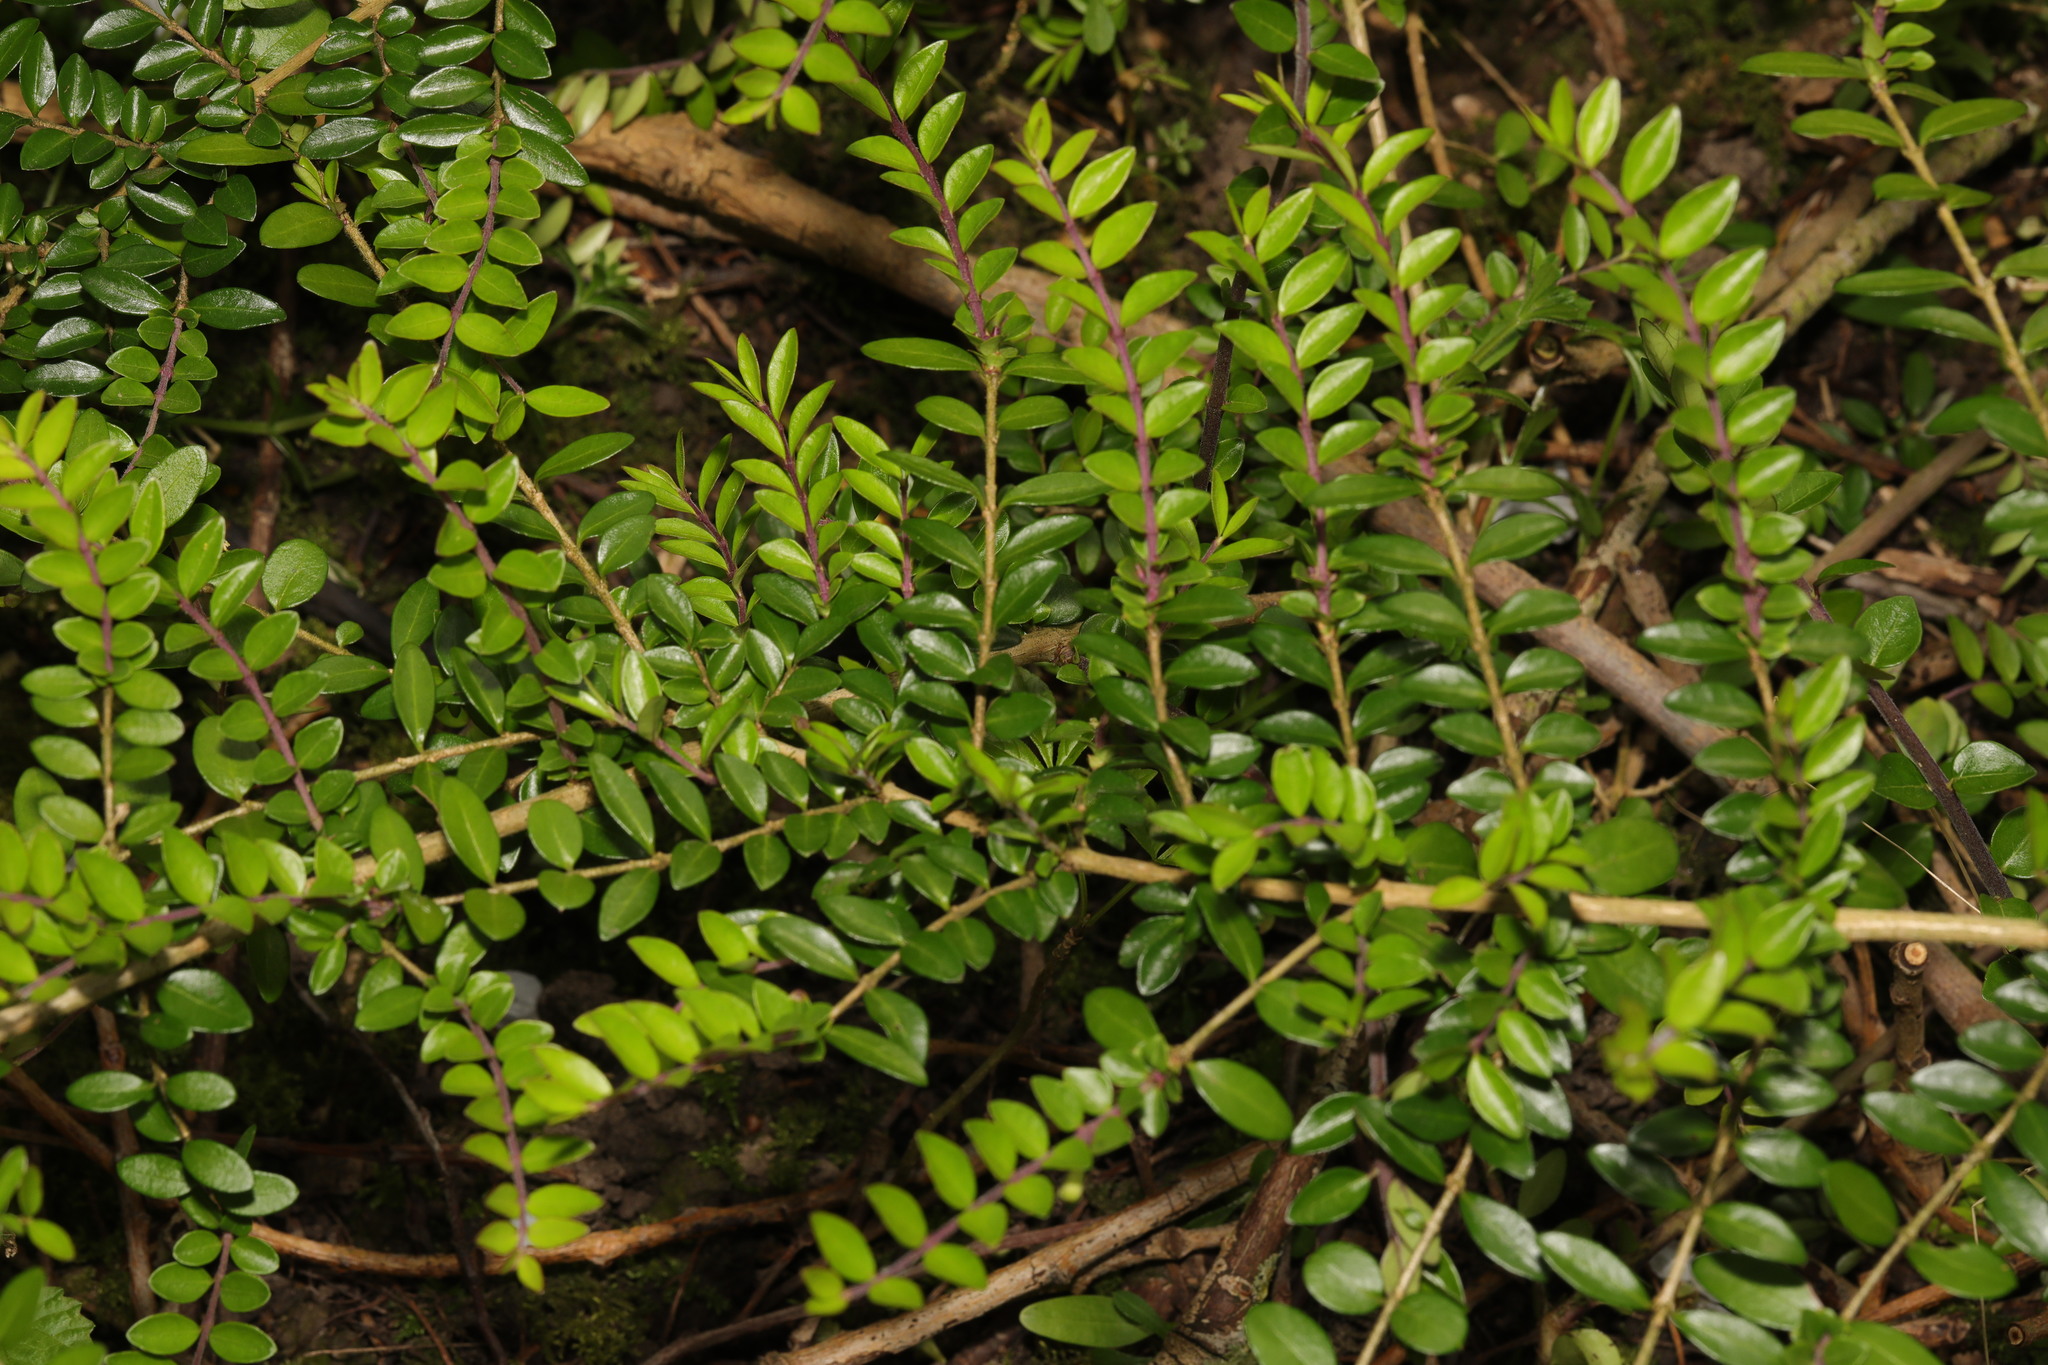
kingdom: Plantae
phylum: Tracheophyta
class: Magnoliopsida
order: Dipsacales
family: Caprifoliaceae
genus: Lonicera
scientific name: Lonicera pileata
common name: Box-leaved honeysuckle
